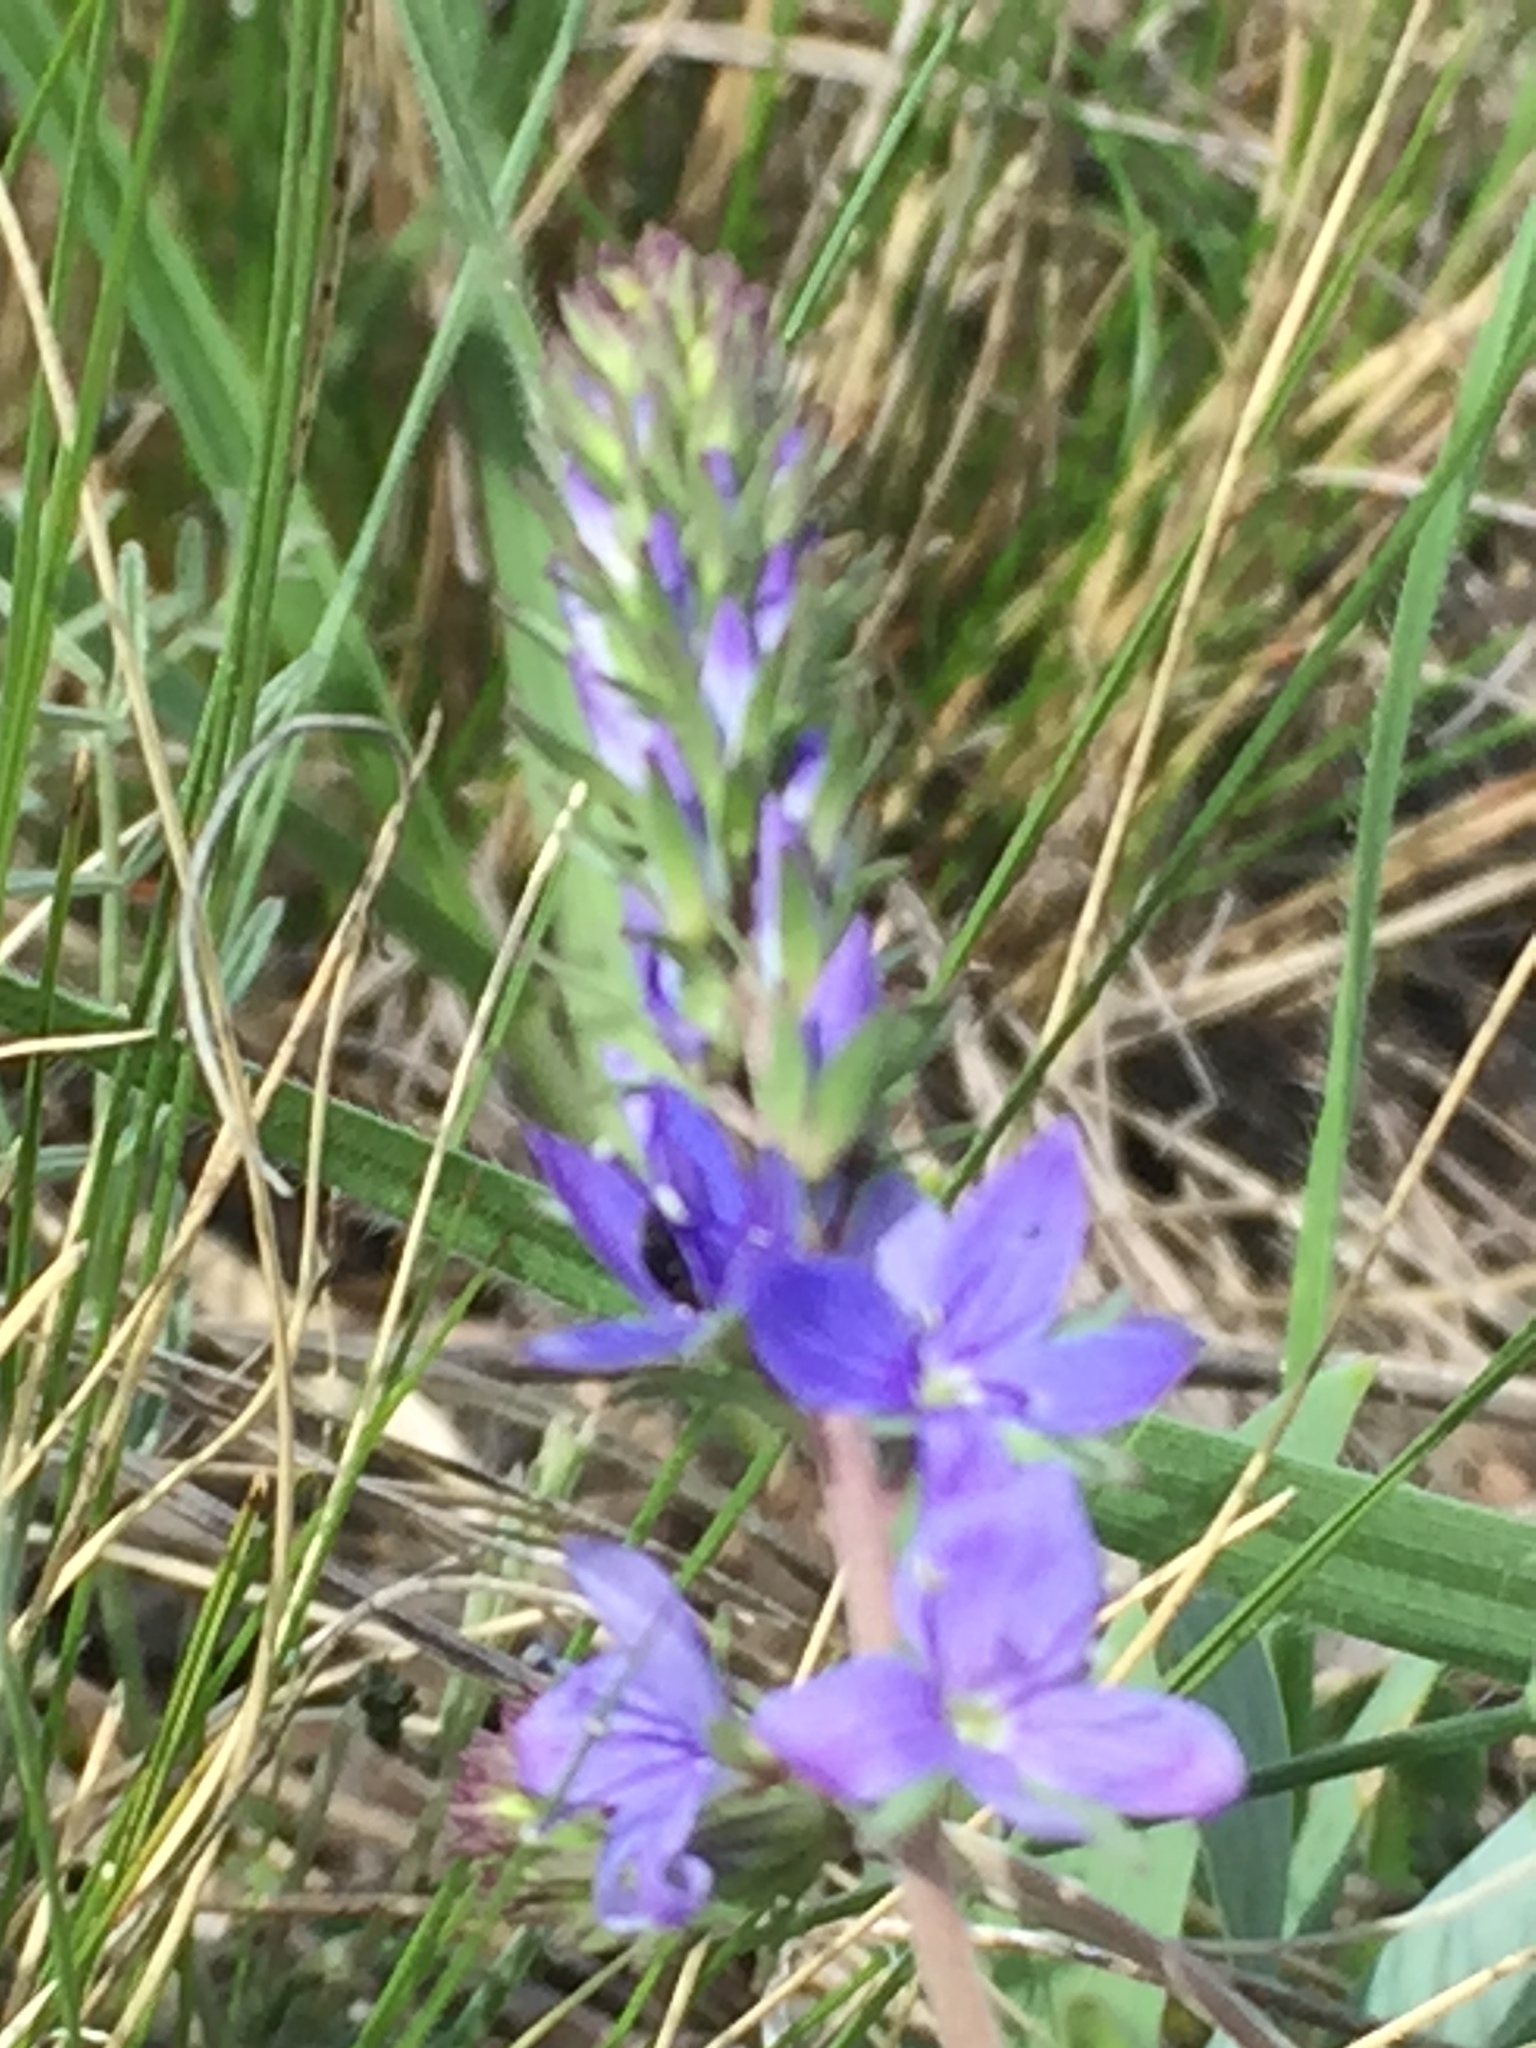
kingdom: Plantae
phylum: Tracheophyta
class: Magnoliopsida
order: Lamiales
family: Plantaginaceae
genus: Veronica
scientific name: Veronica prostrata
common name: Prostrate speedwell
